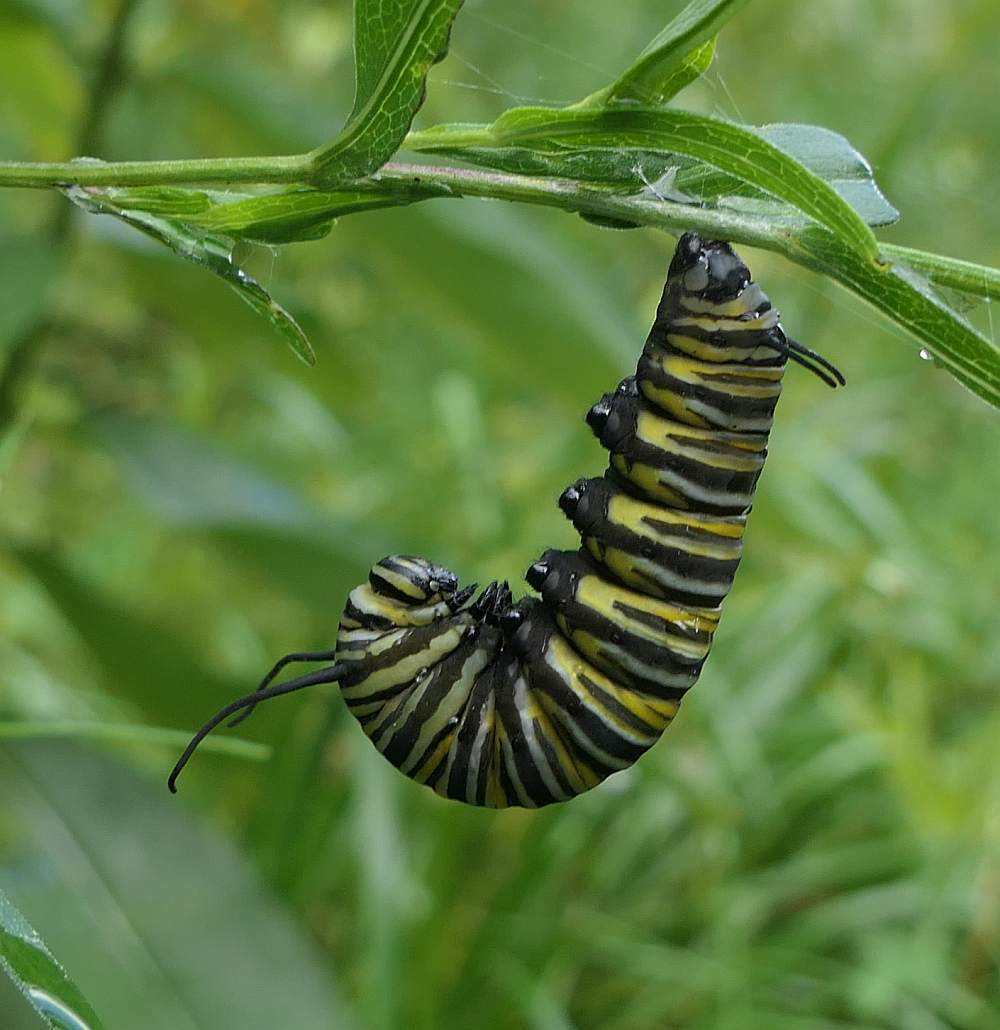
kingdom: Animalia
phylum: Arthropoda
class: Insecta
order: Lepidoptera
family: Nymphalidae
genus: Danaus
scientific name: Danaus plexippus
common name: Monarch
